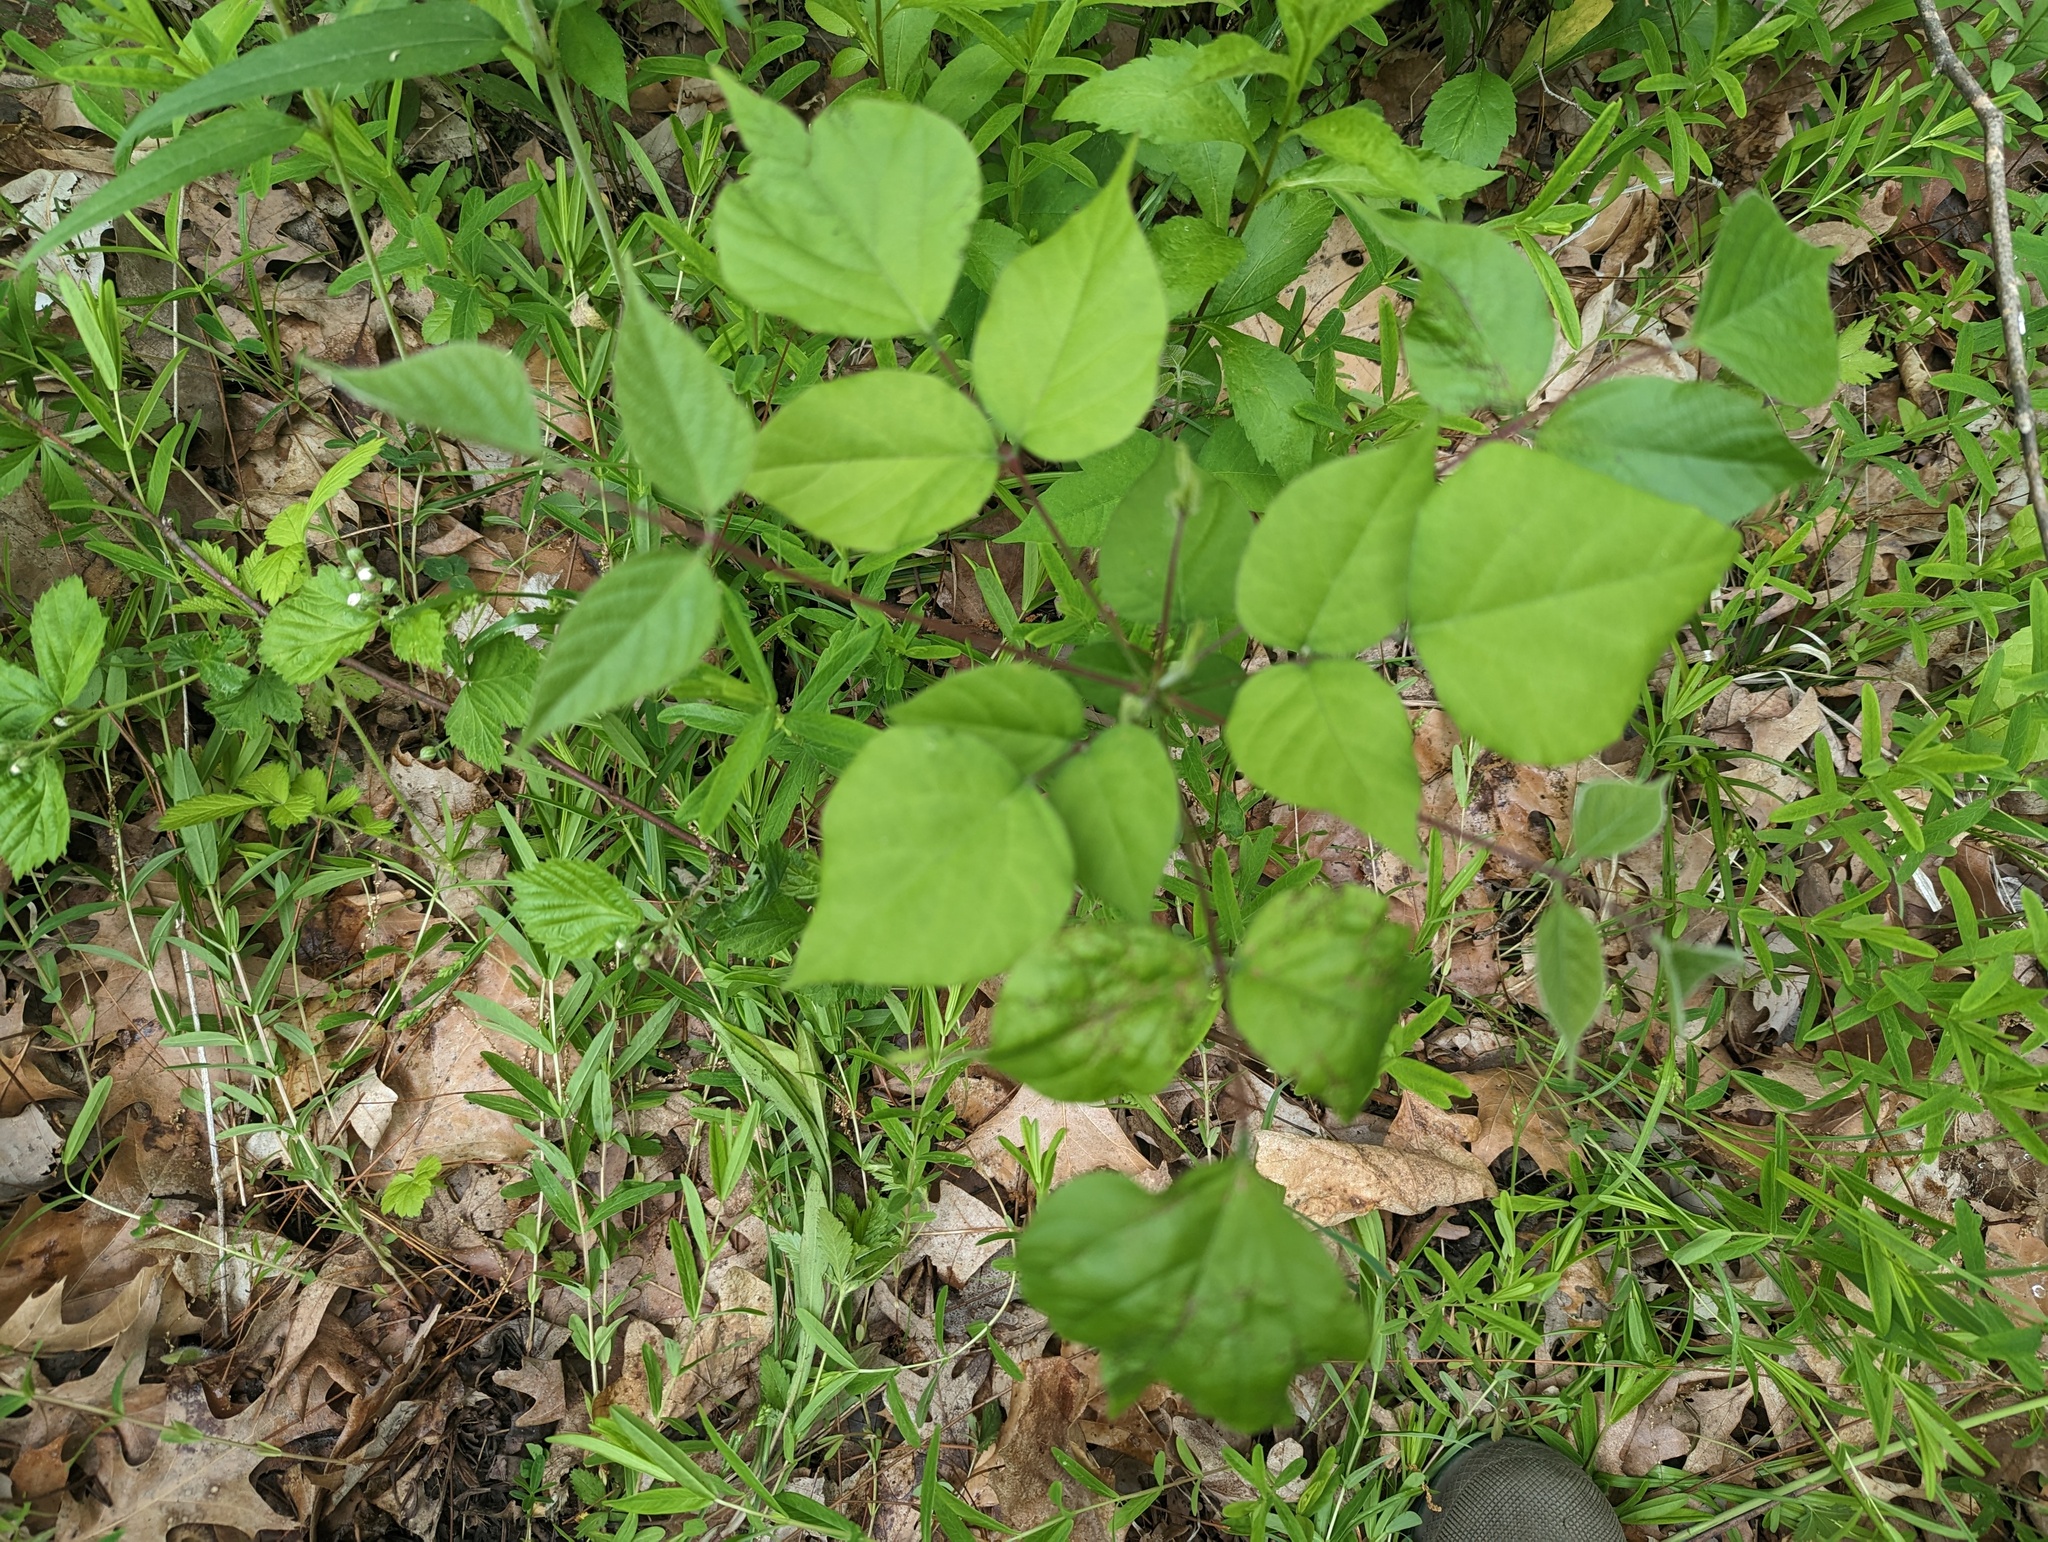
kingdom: Plantae
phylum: Tracheophyta
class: Magnoliopsida
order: Fabales
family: Fabaceae
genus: Hylodesmum
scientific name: Hylodesmum glutinosum
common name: Clustered-leaved tick-trefoil
